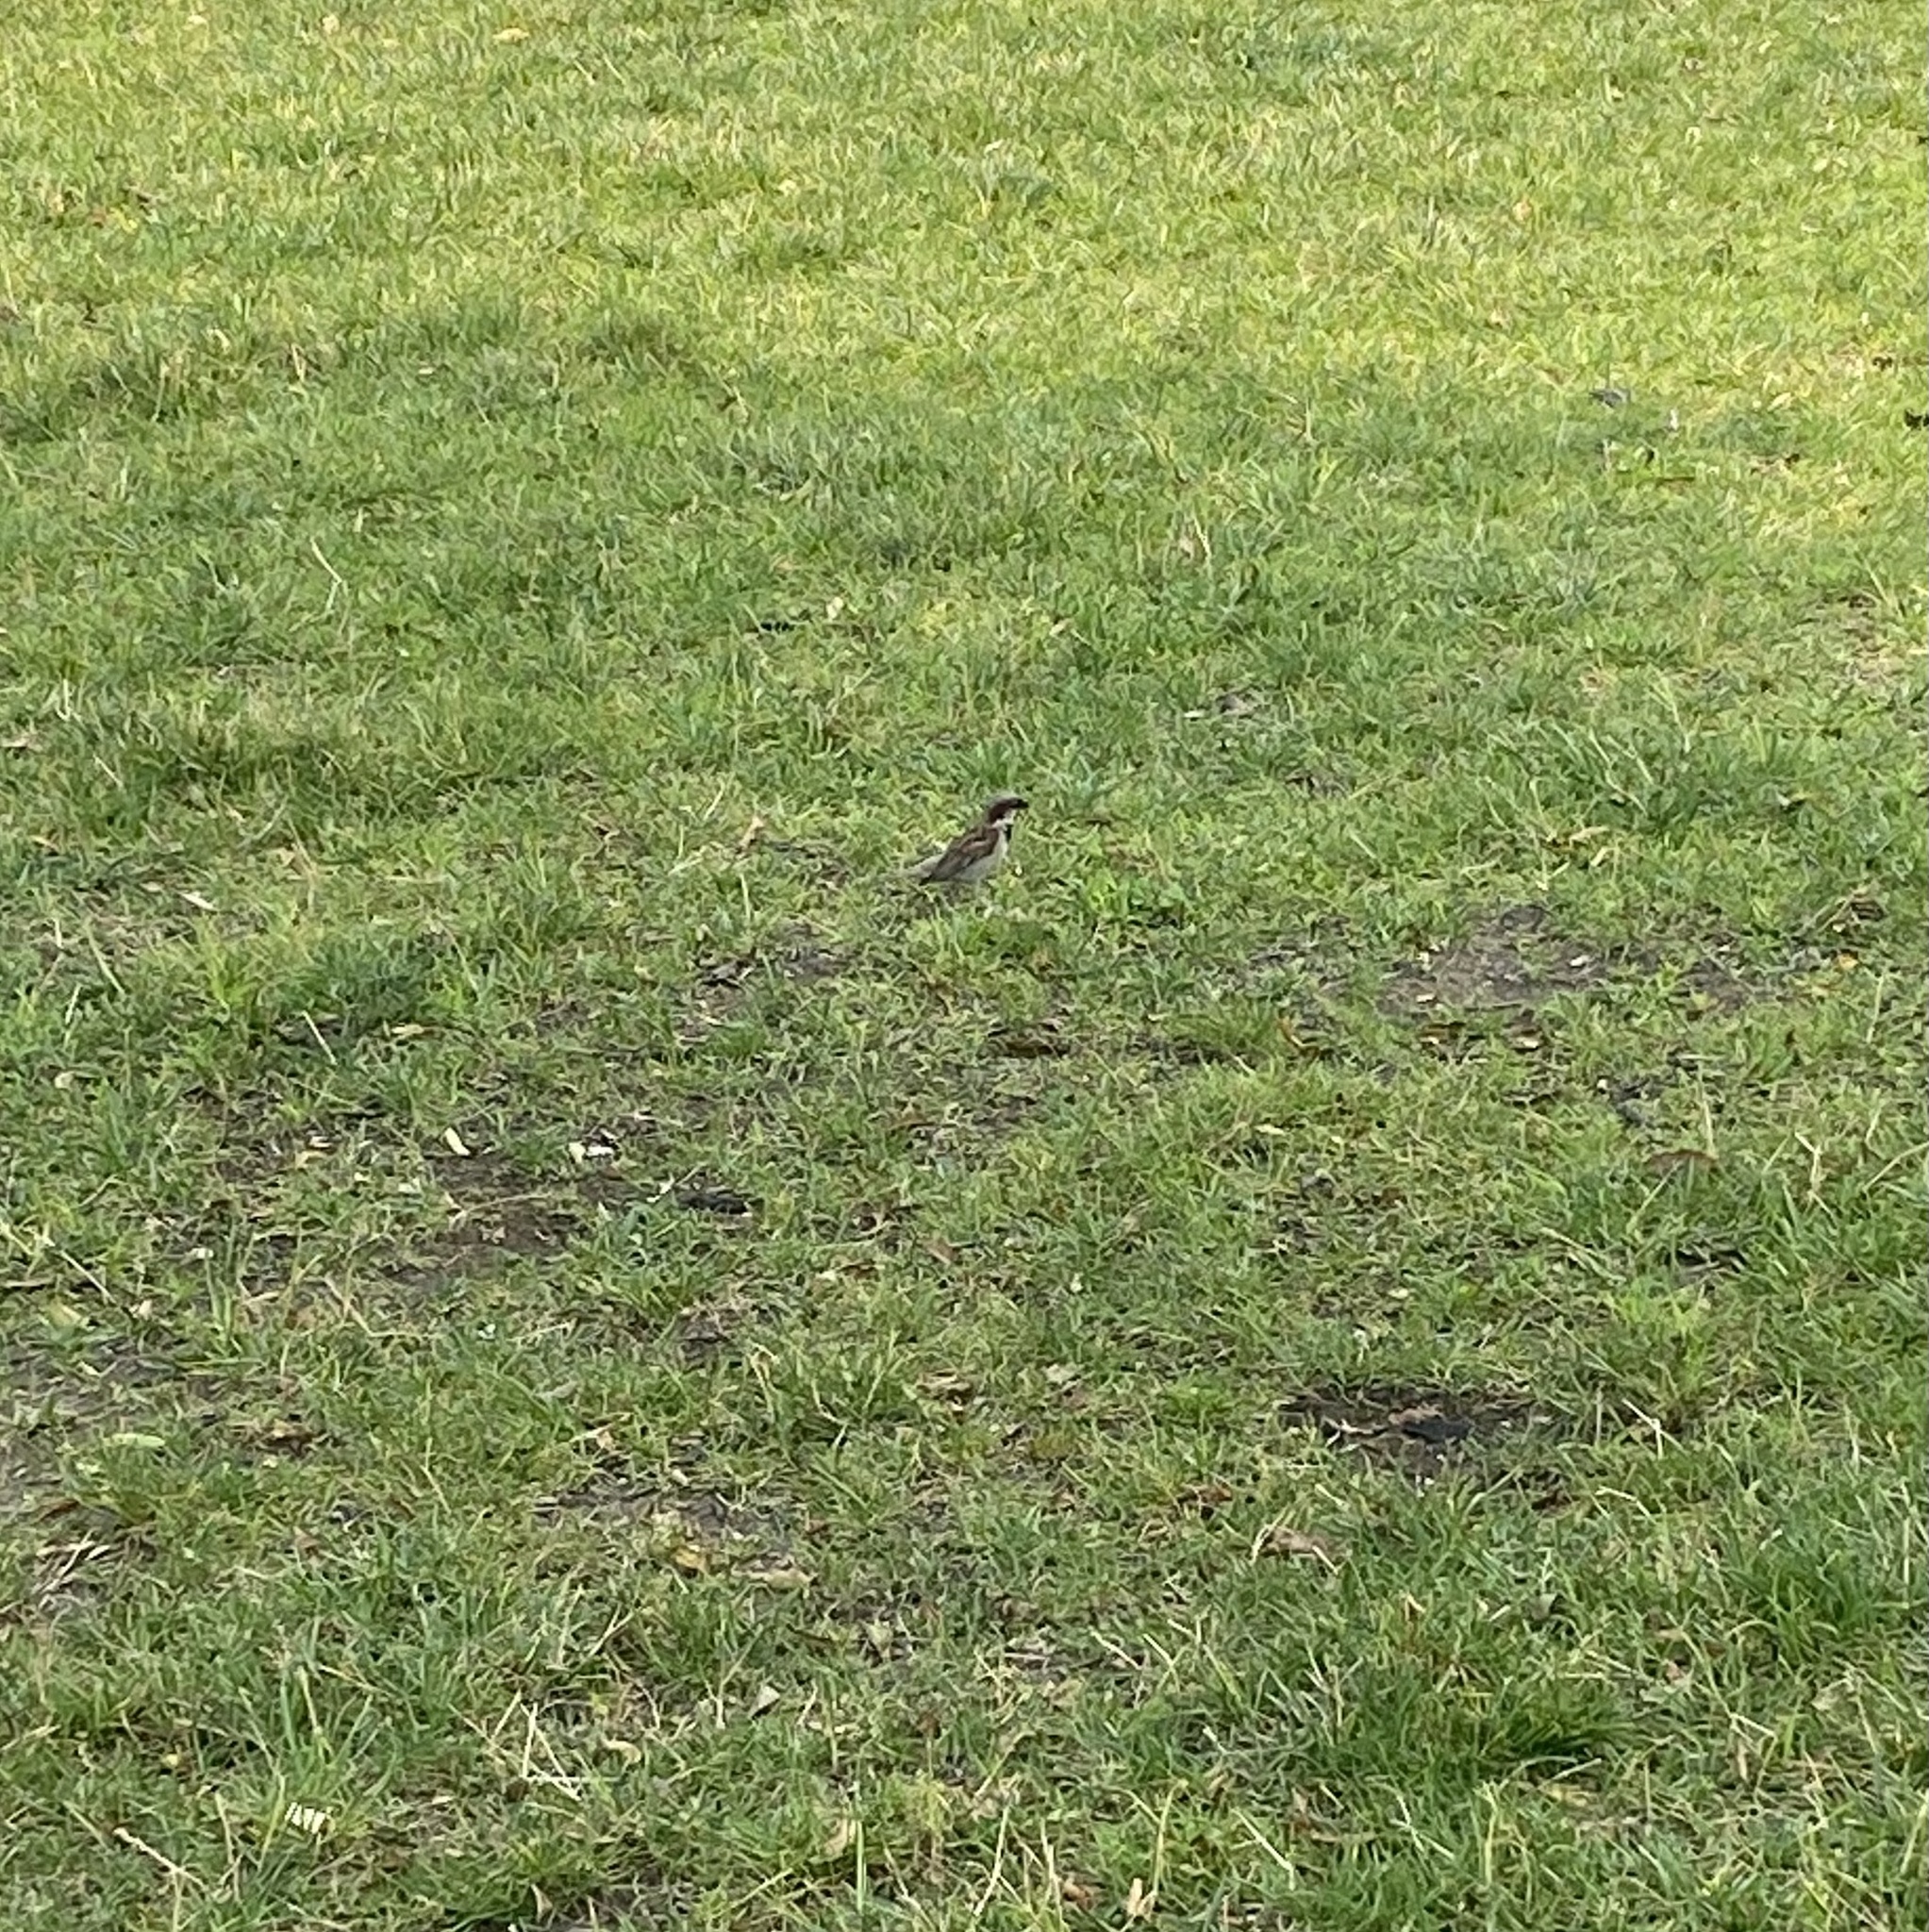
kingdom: Animalia
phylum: Chordata
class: Aves
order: Passeriformes
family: Passeridae
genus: Passer
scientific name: Passer domesticus
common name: House sparrow
